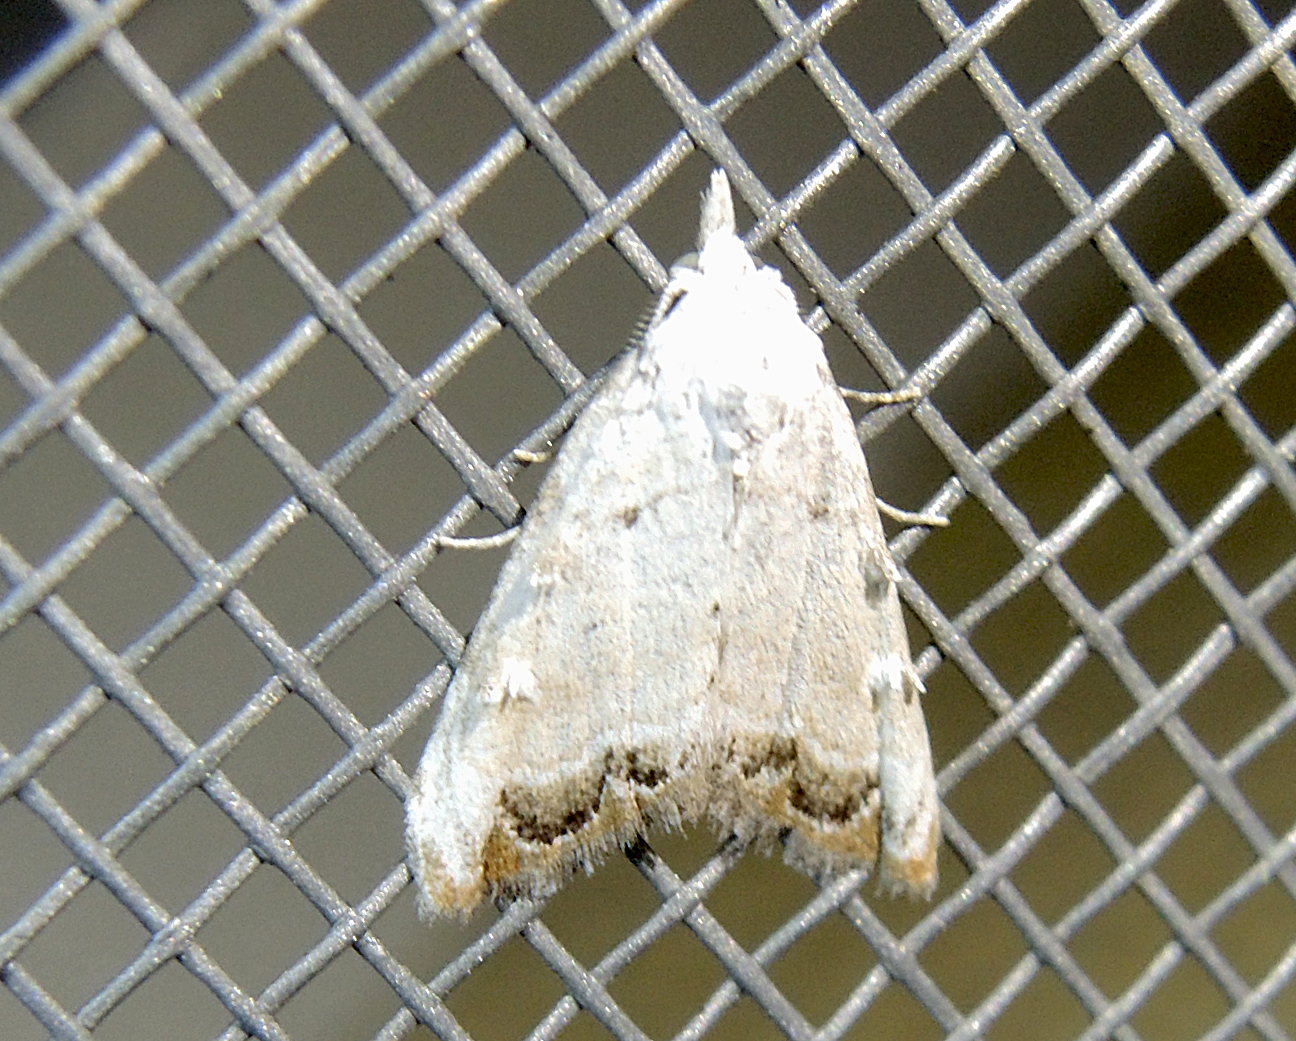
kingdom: Animalia
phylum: Arthropoda
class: Insecta
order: Lepidoptera
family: Nolidae
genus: Nola
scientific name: Nola chlamitulalis
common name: Jersey black arches
